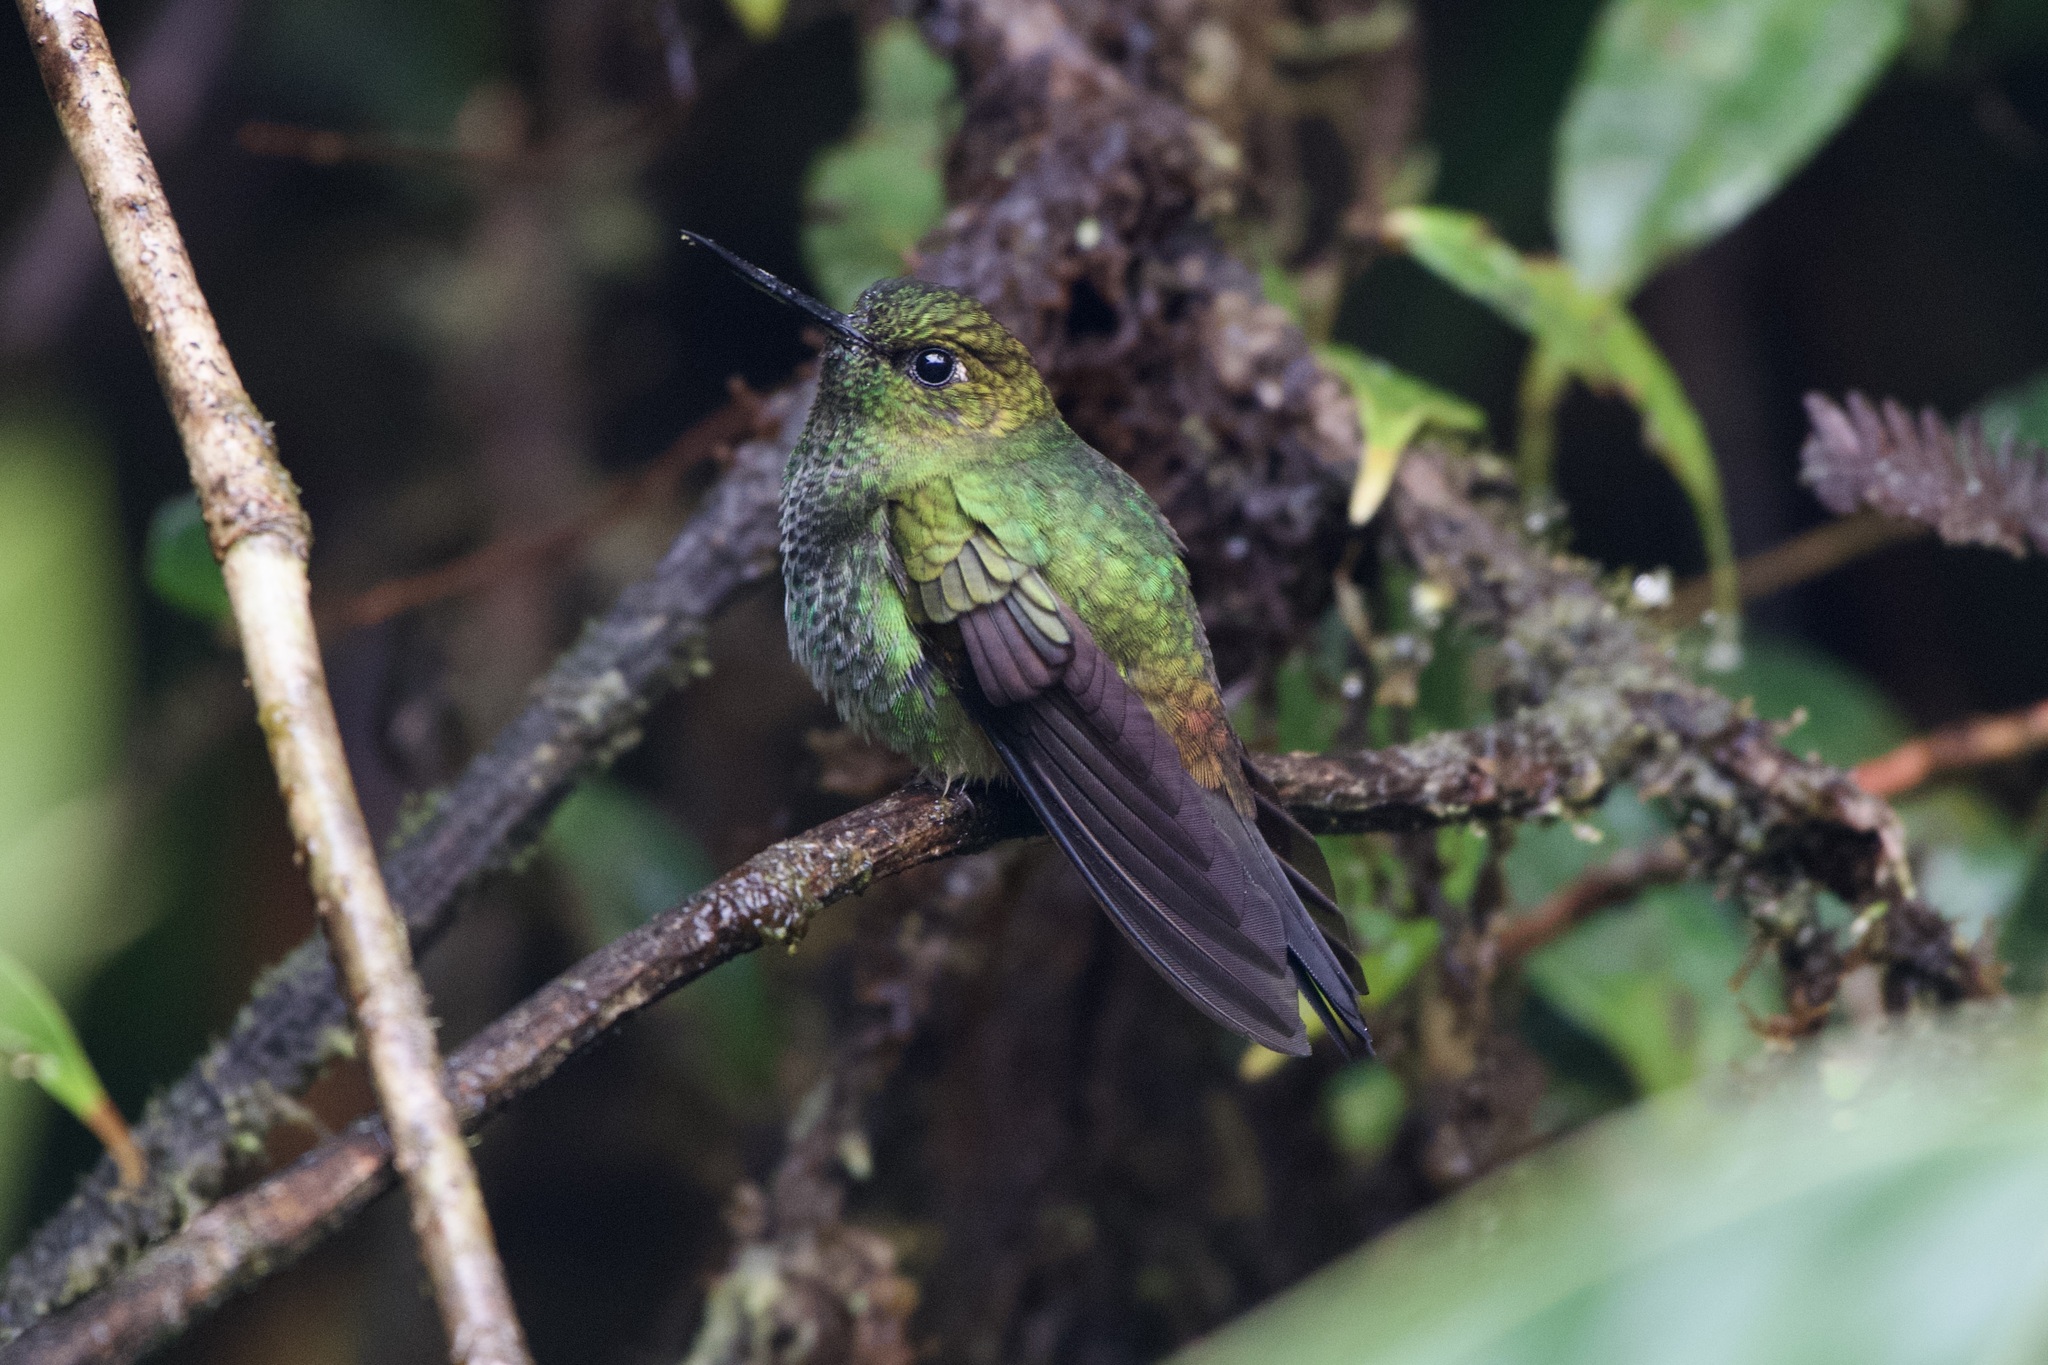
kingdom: Animalia
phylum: Chordata
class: Aves
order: Apodiformes
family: Trochilidae
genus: Haplophaedia
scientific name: Haplophaedia aureliae
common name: Greenish puffleg
